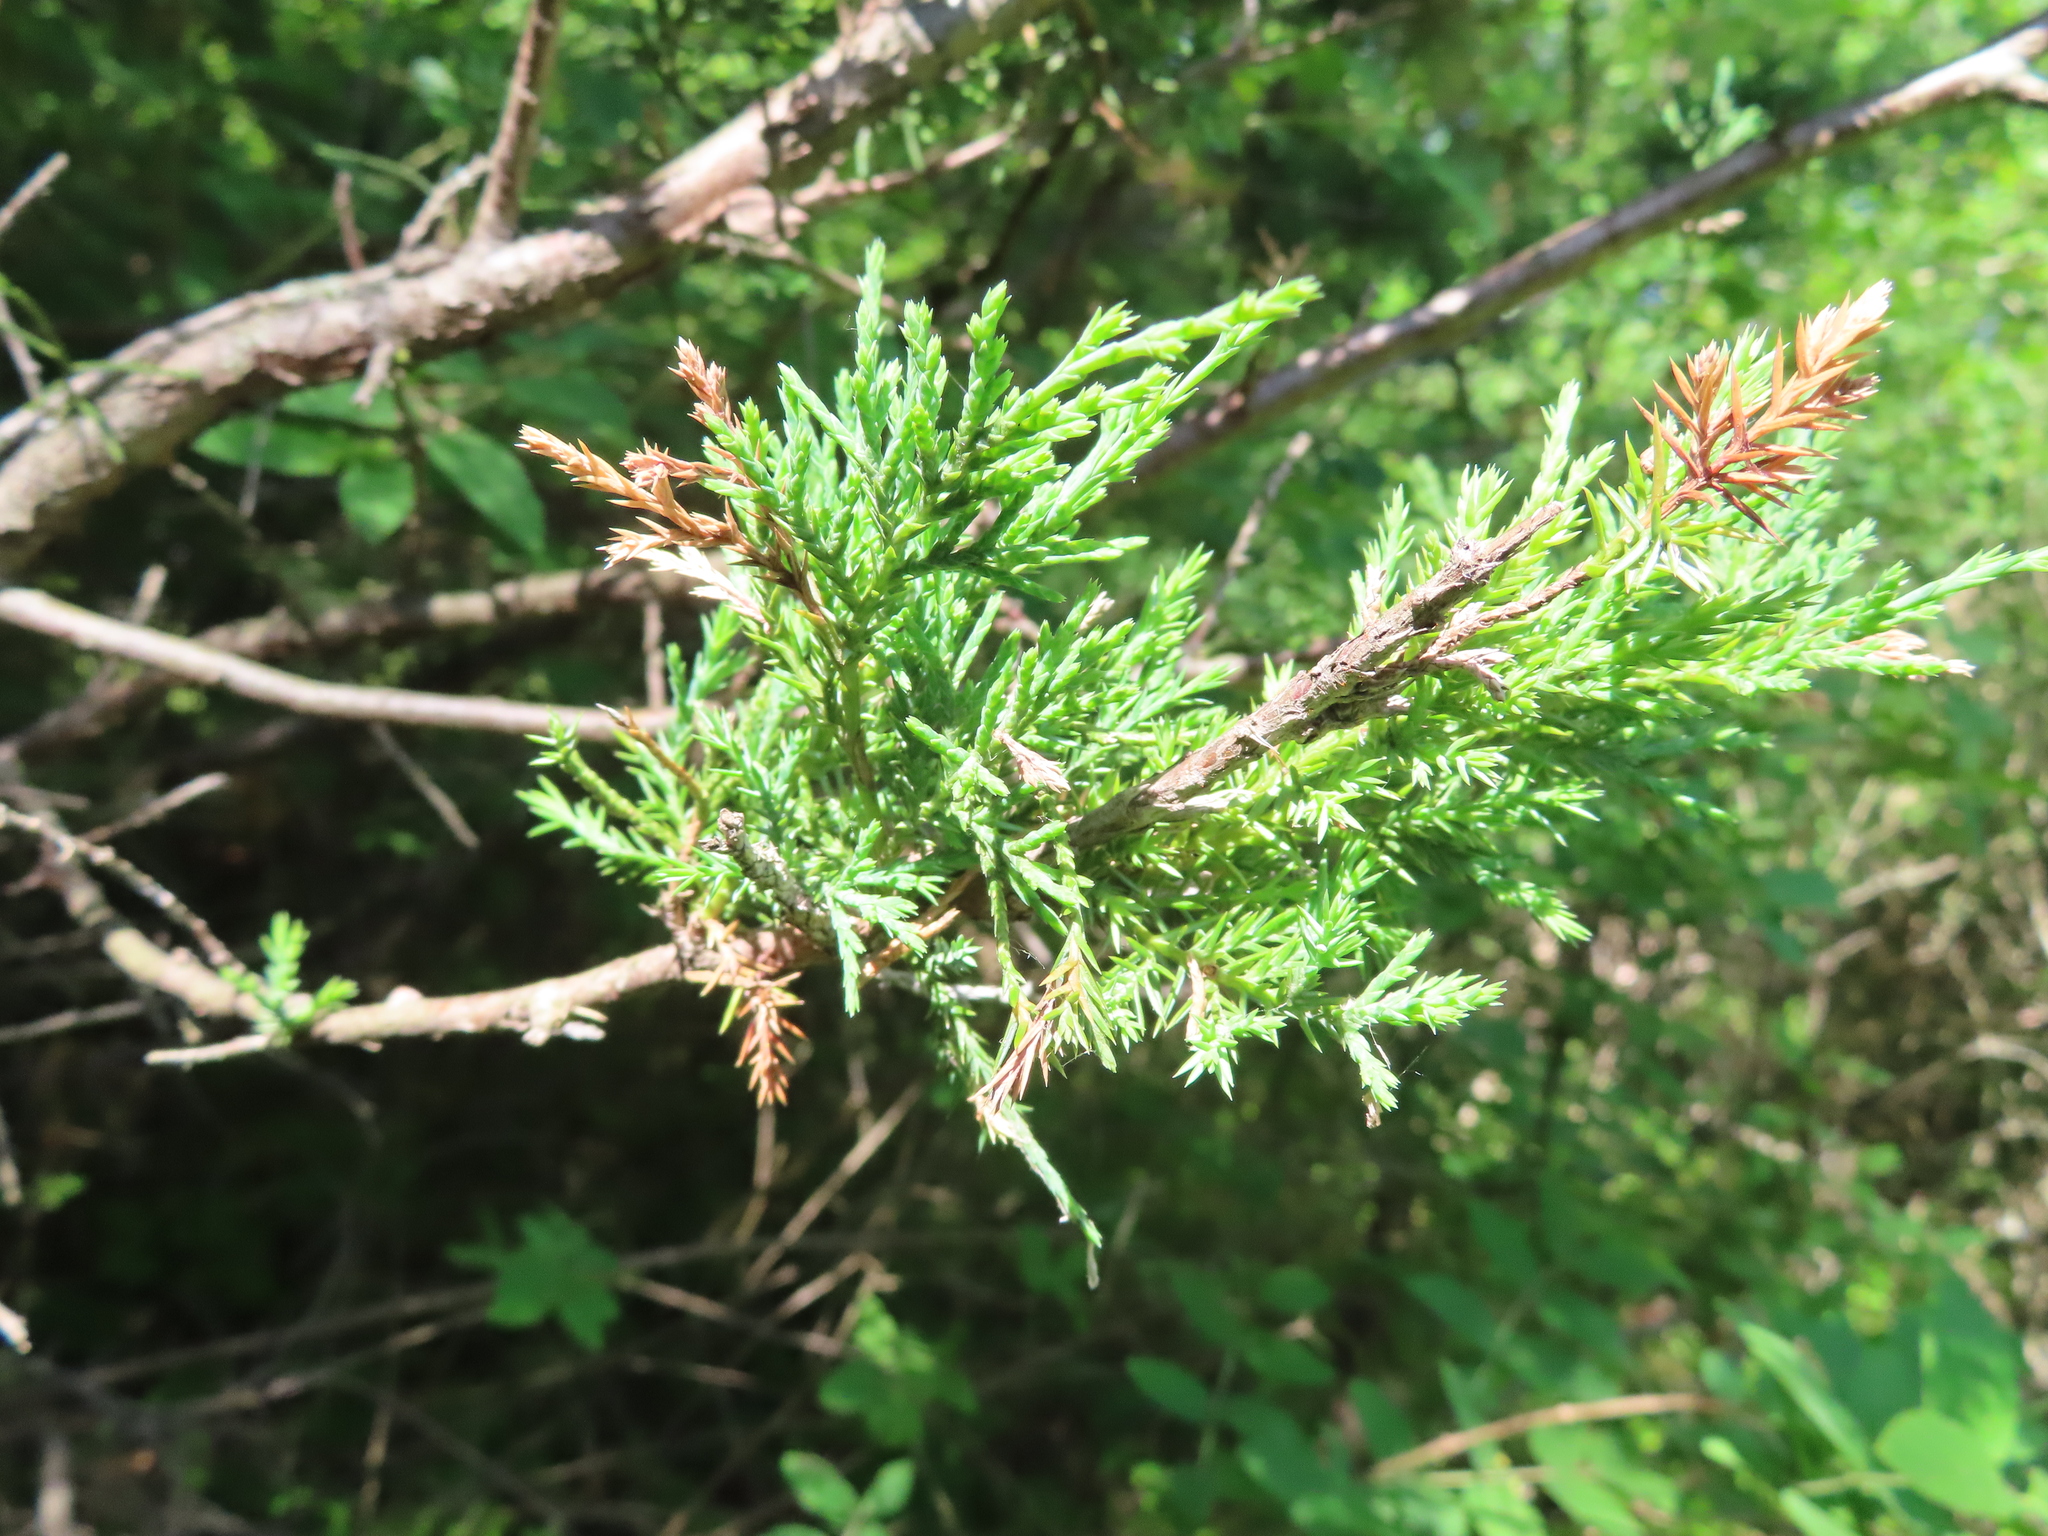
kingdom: Plantae
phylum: Tracheophyta
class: Pinopsida
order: Pinales
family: Cupressaceae
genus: Juniperus
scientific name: Juniperus virginiana
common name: Red juniper
